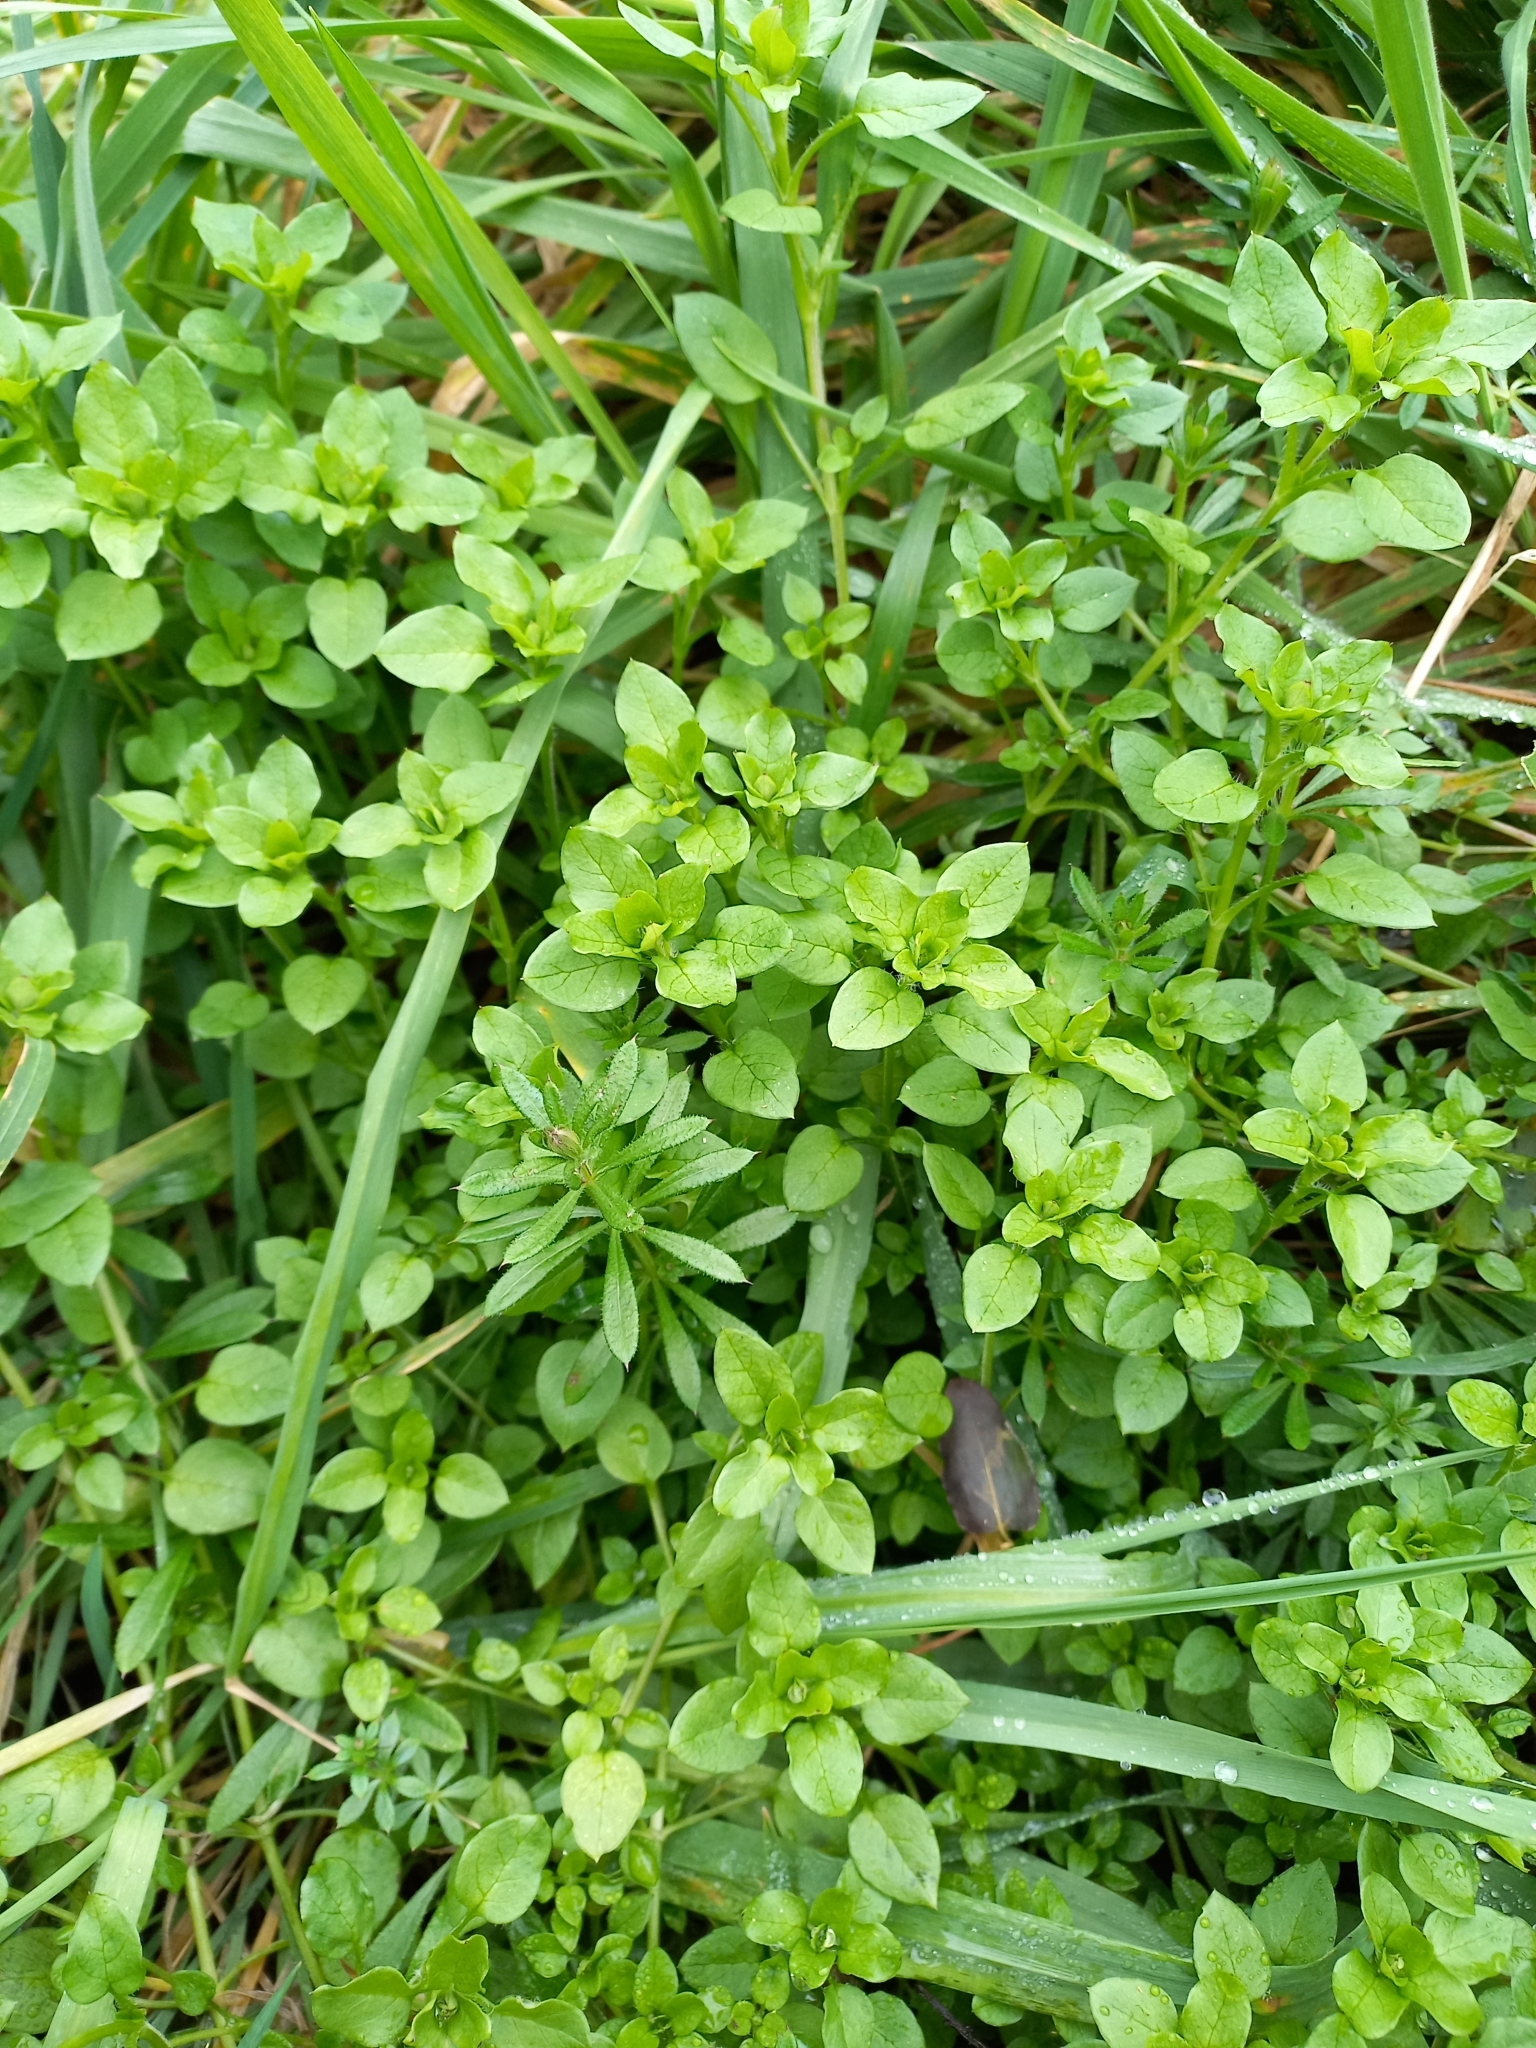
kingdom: Plantae
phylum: Tracheophyta
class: Magnoliopsida
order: Caryophyllales
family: Caryophyllaceae
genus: Stellaria
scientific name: Stellaria media
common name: Common chickweed
